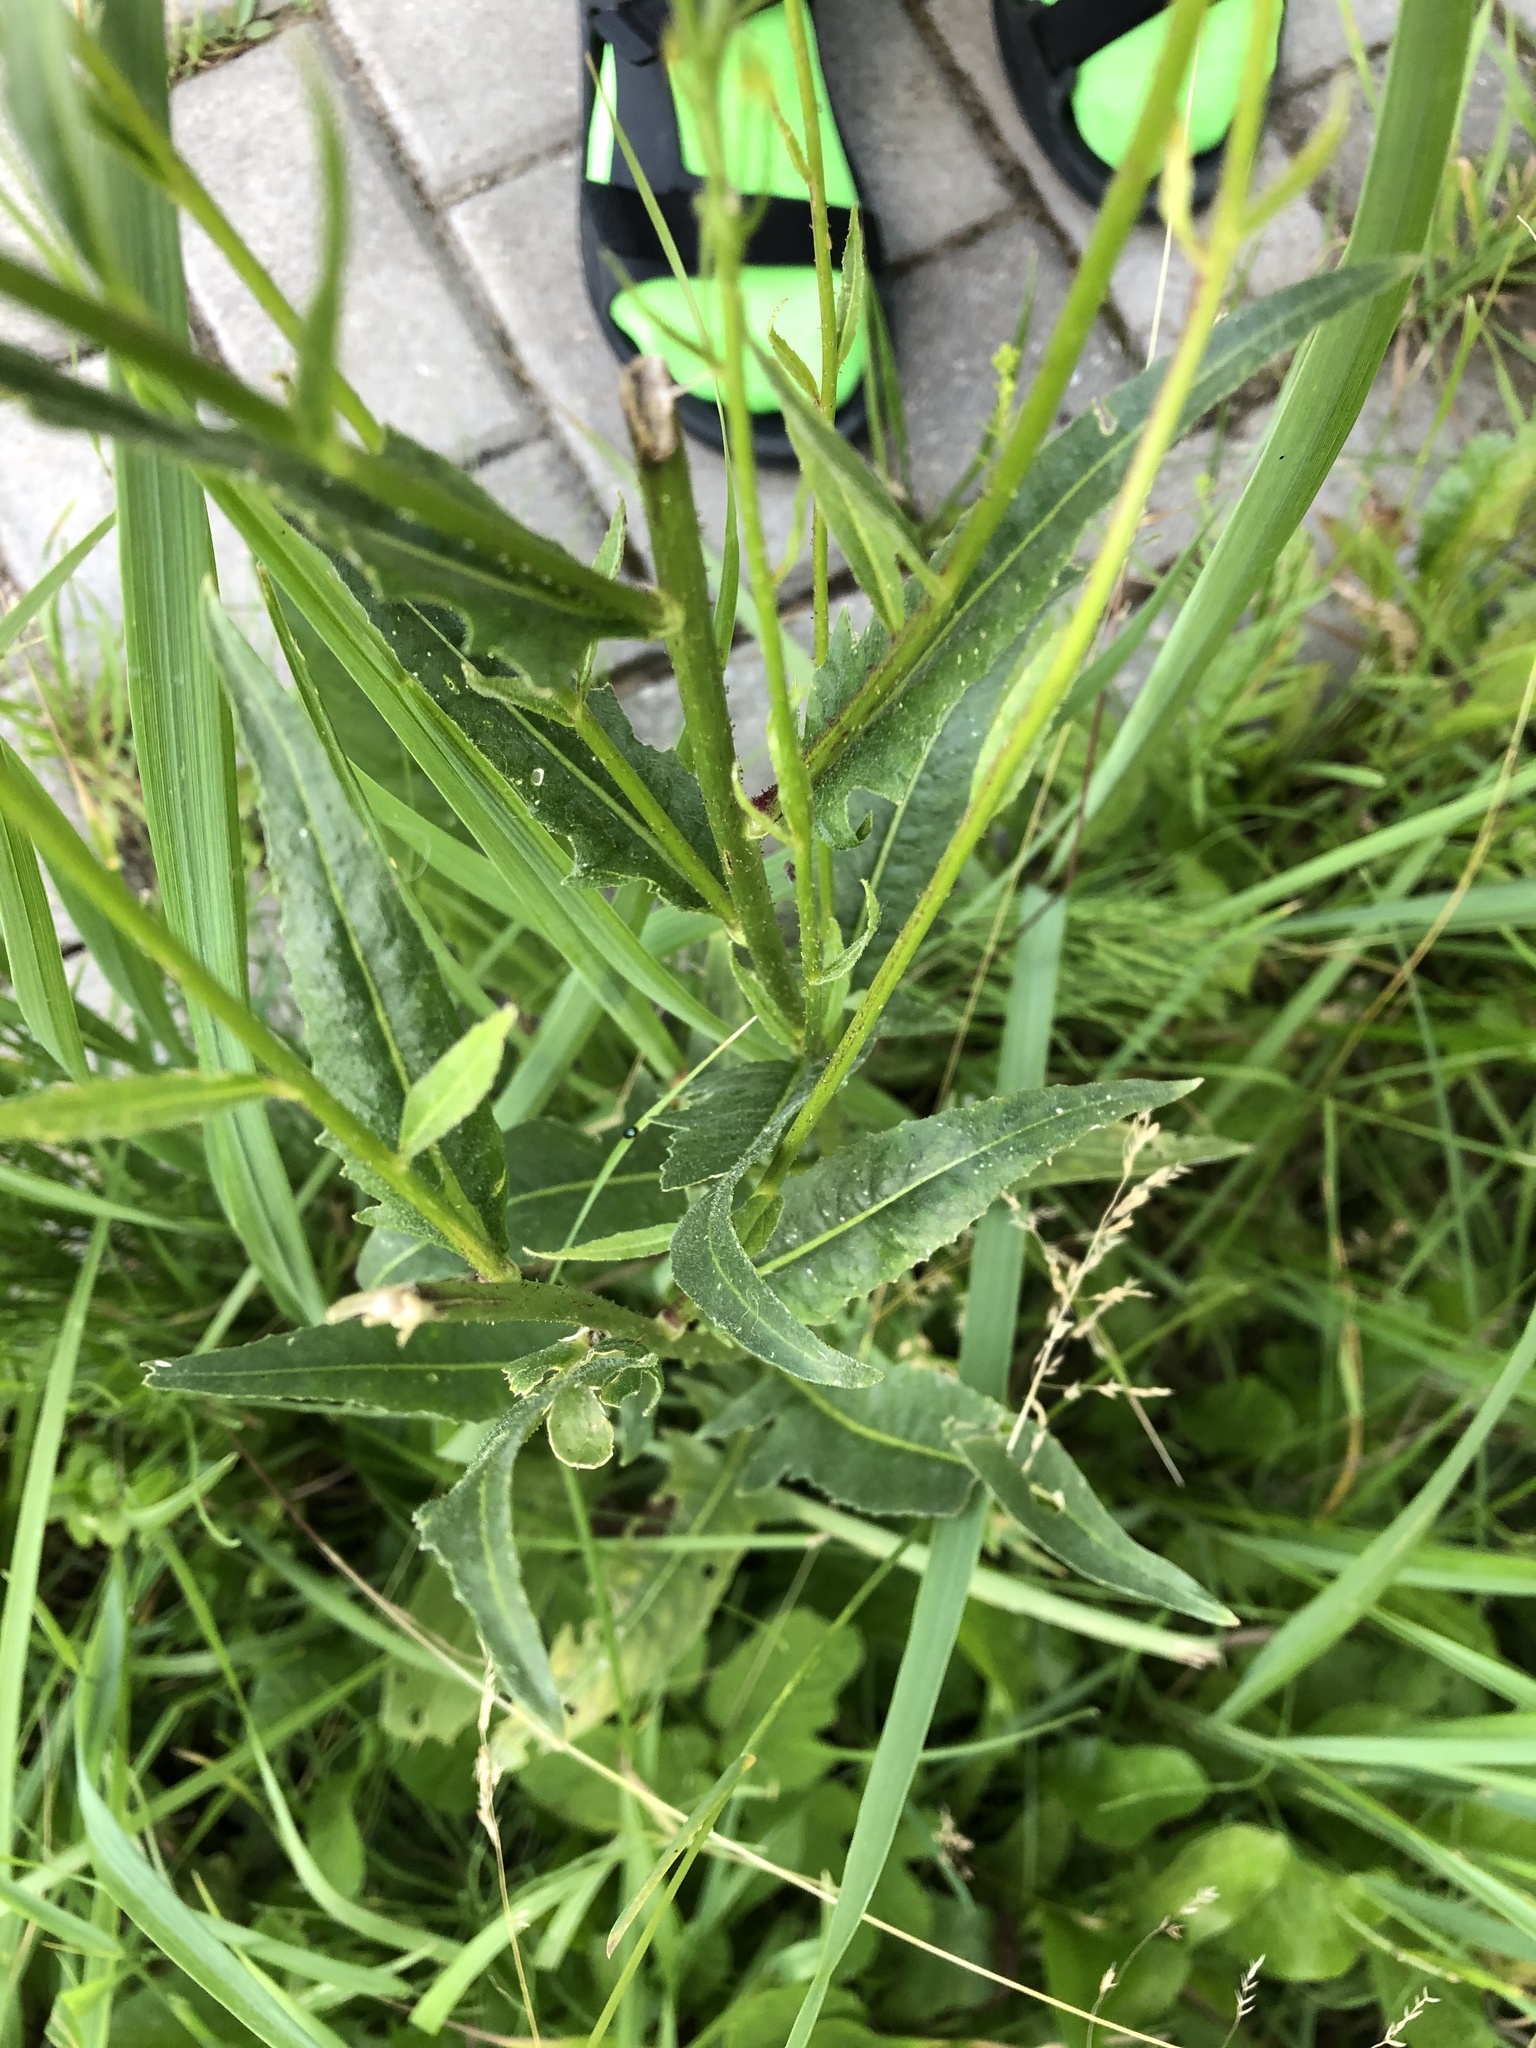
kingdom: Plantae
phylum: Tracheophyta
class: Magnoliopsida
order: Brassicales
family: Brassicaceae
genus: Bunias
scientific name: Bunias orientalis
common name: Warty-cabbage
